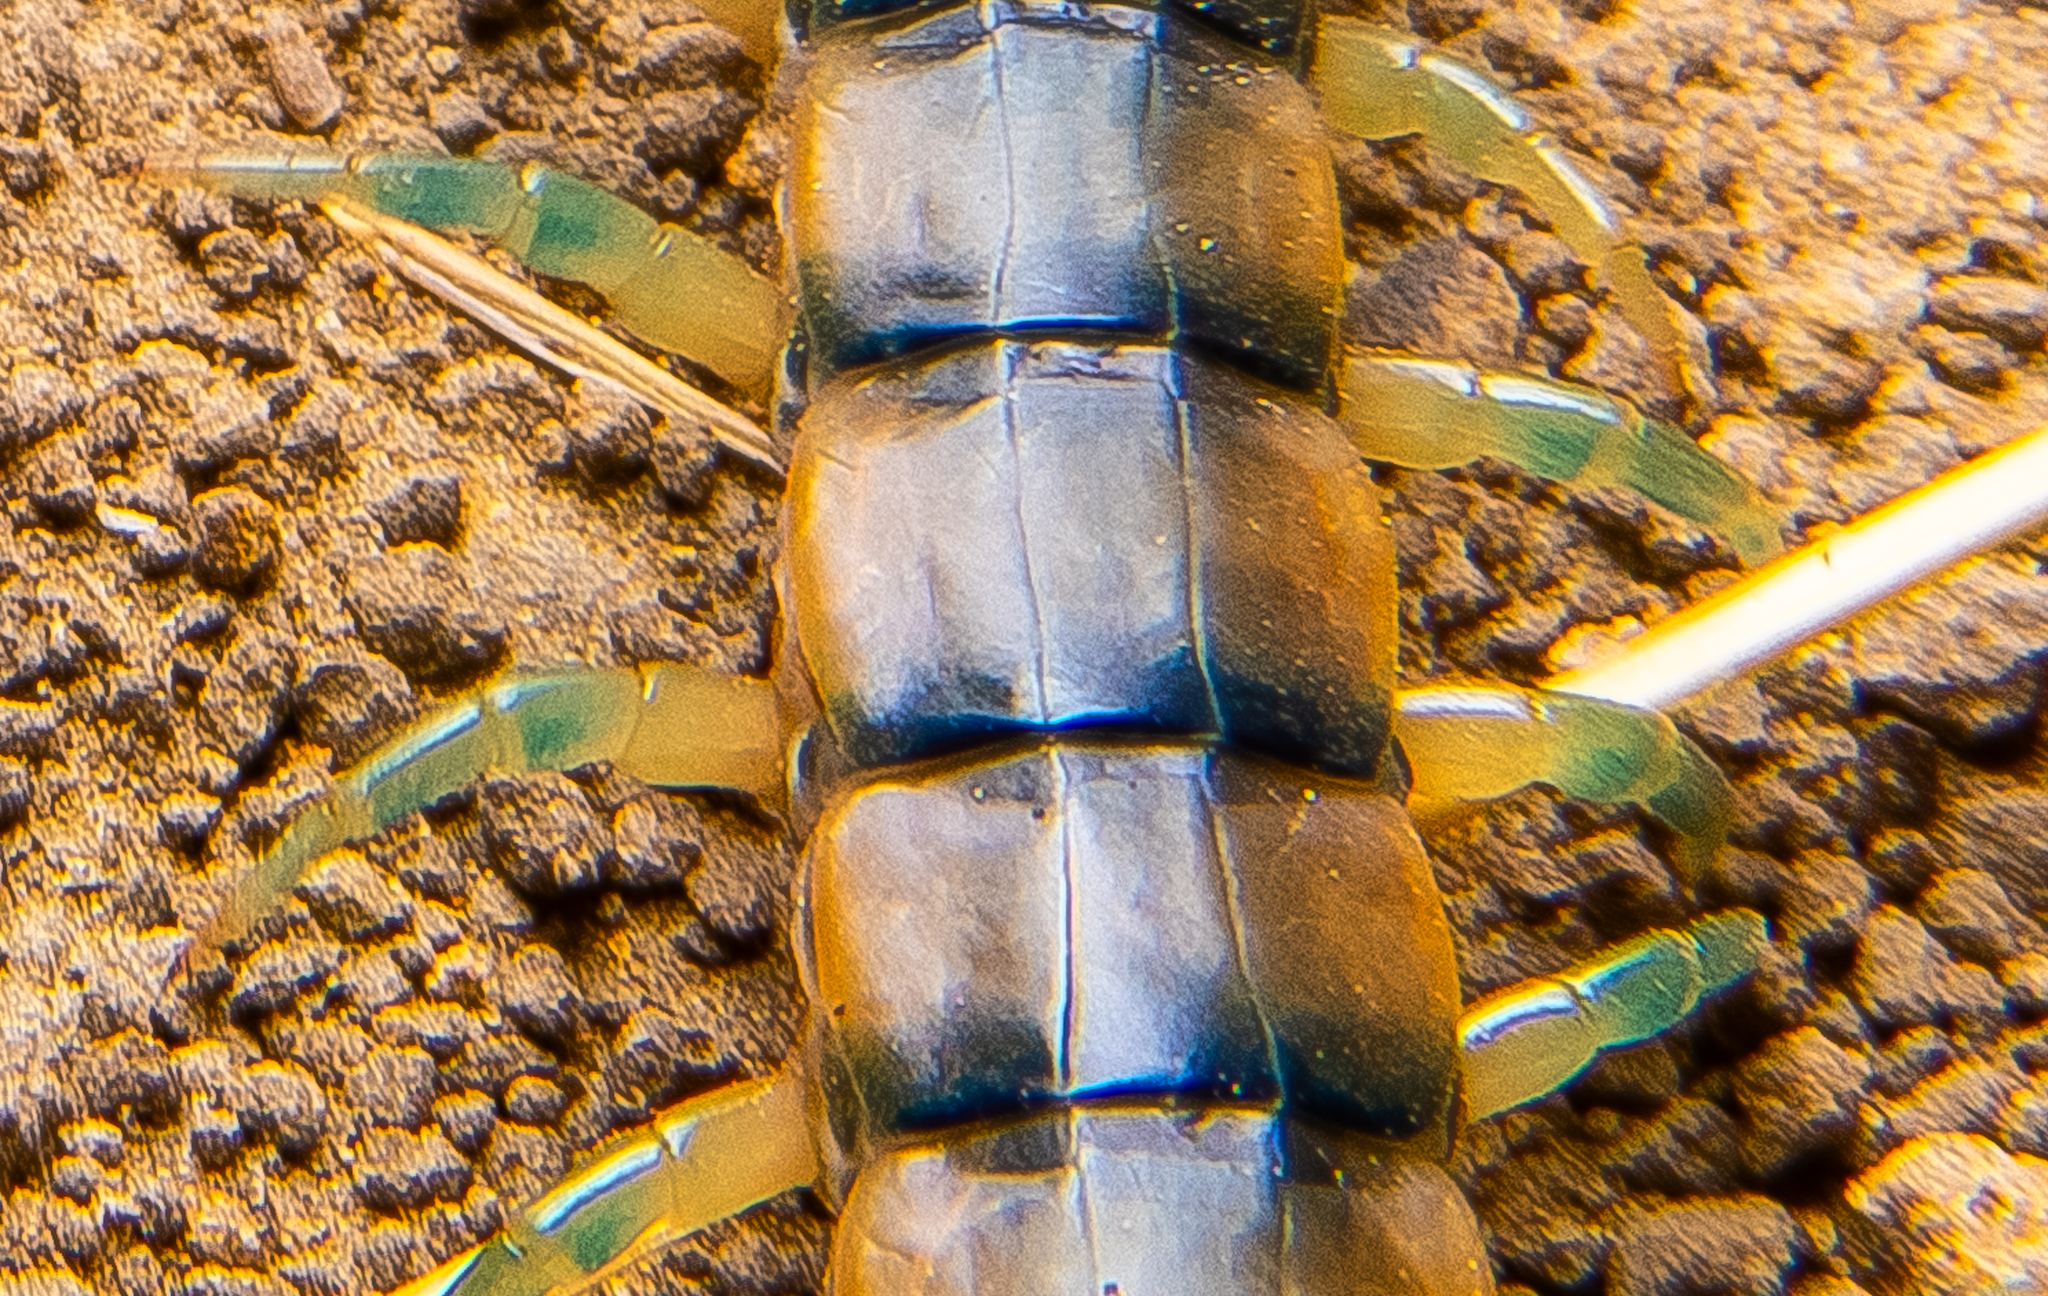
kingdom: Animalia
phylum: Arthropoda
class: Chilopoda
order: Scolopendromorpha
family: Scolopendridae
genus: Scolopendra
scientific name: Scolopendra polymorpha
